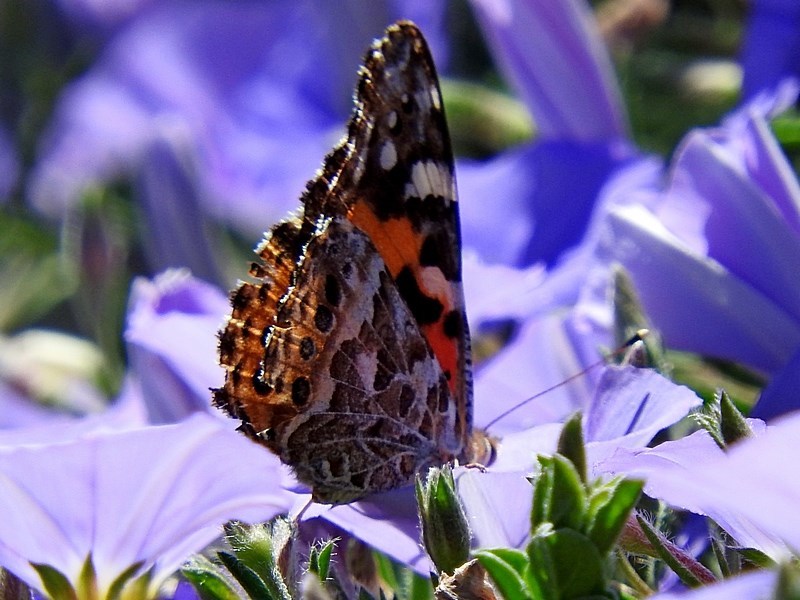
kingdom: Animalia
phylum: Arthropoda
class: Insecta
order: Lepidoptera
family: Nymphalidae
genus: Vanessa
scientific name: Vanessa kershawi
